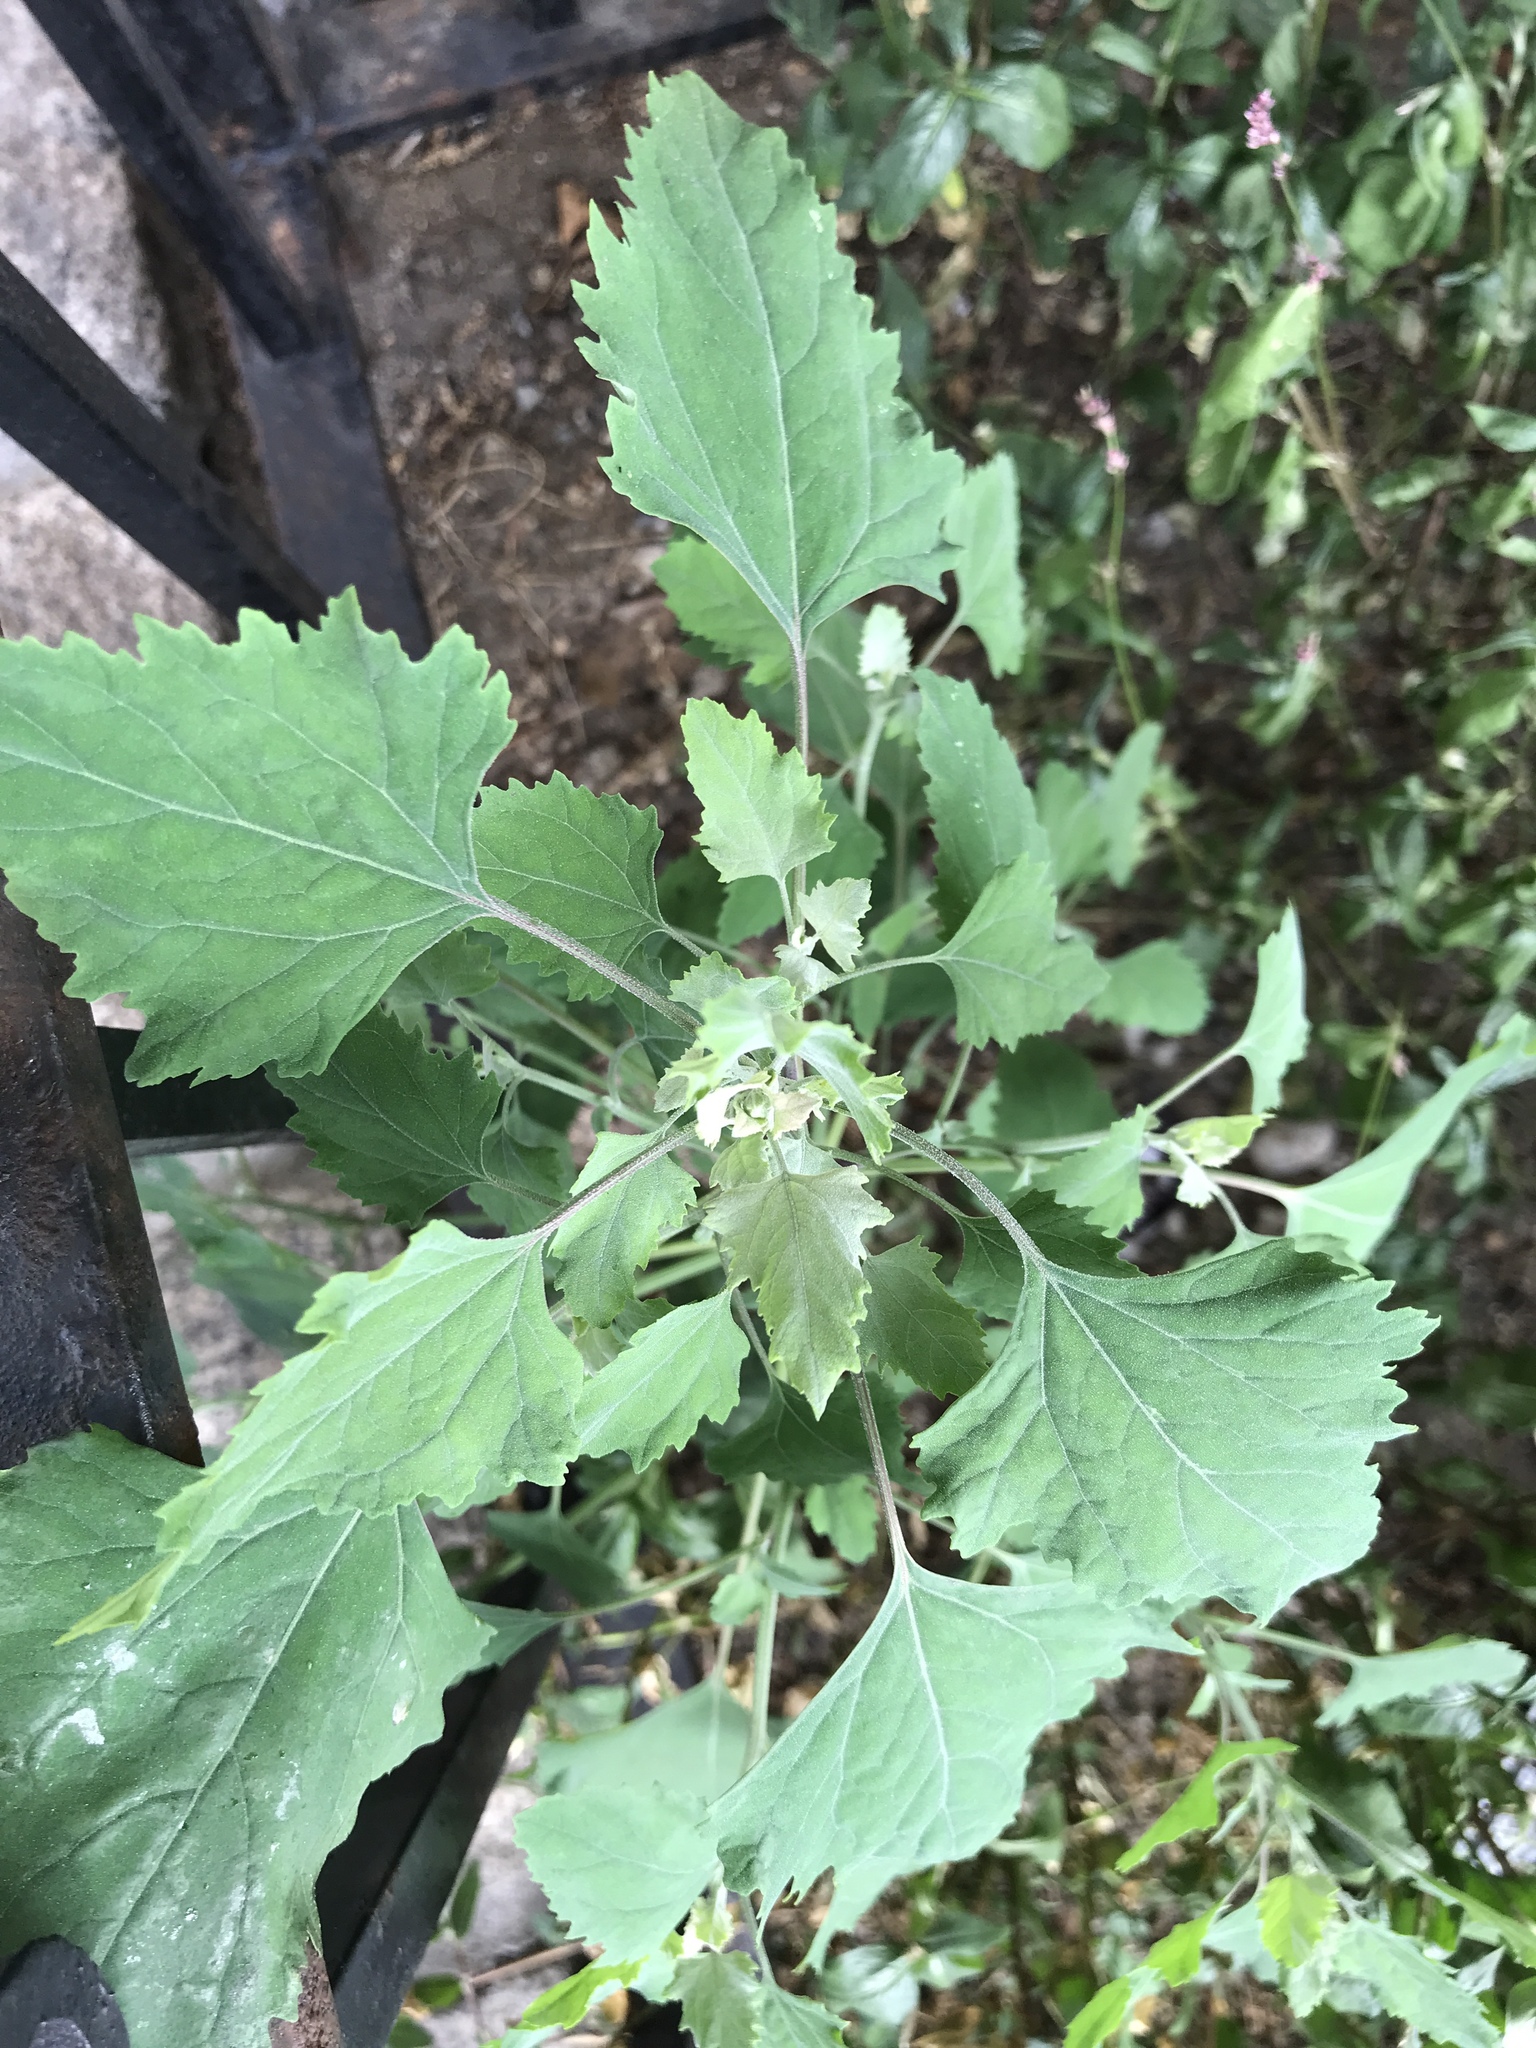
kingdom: Plantae
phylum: Tracheophyta
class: Magnoliopsida
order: Caryophyllales
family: Amaranthaceae
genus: Chenopodium
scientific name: Chenopodium album
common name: Fat-hen
